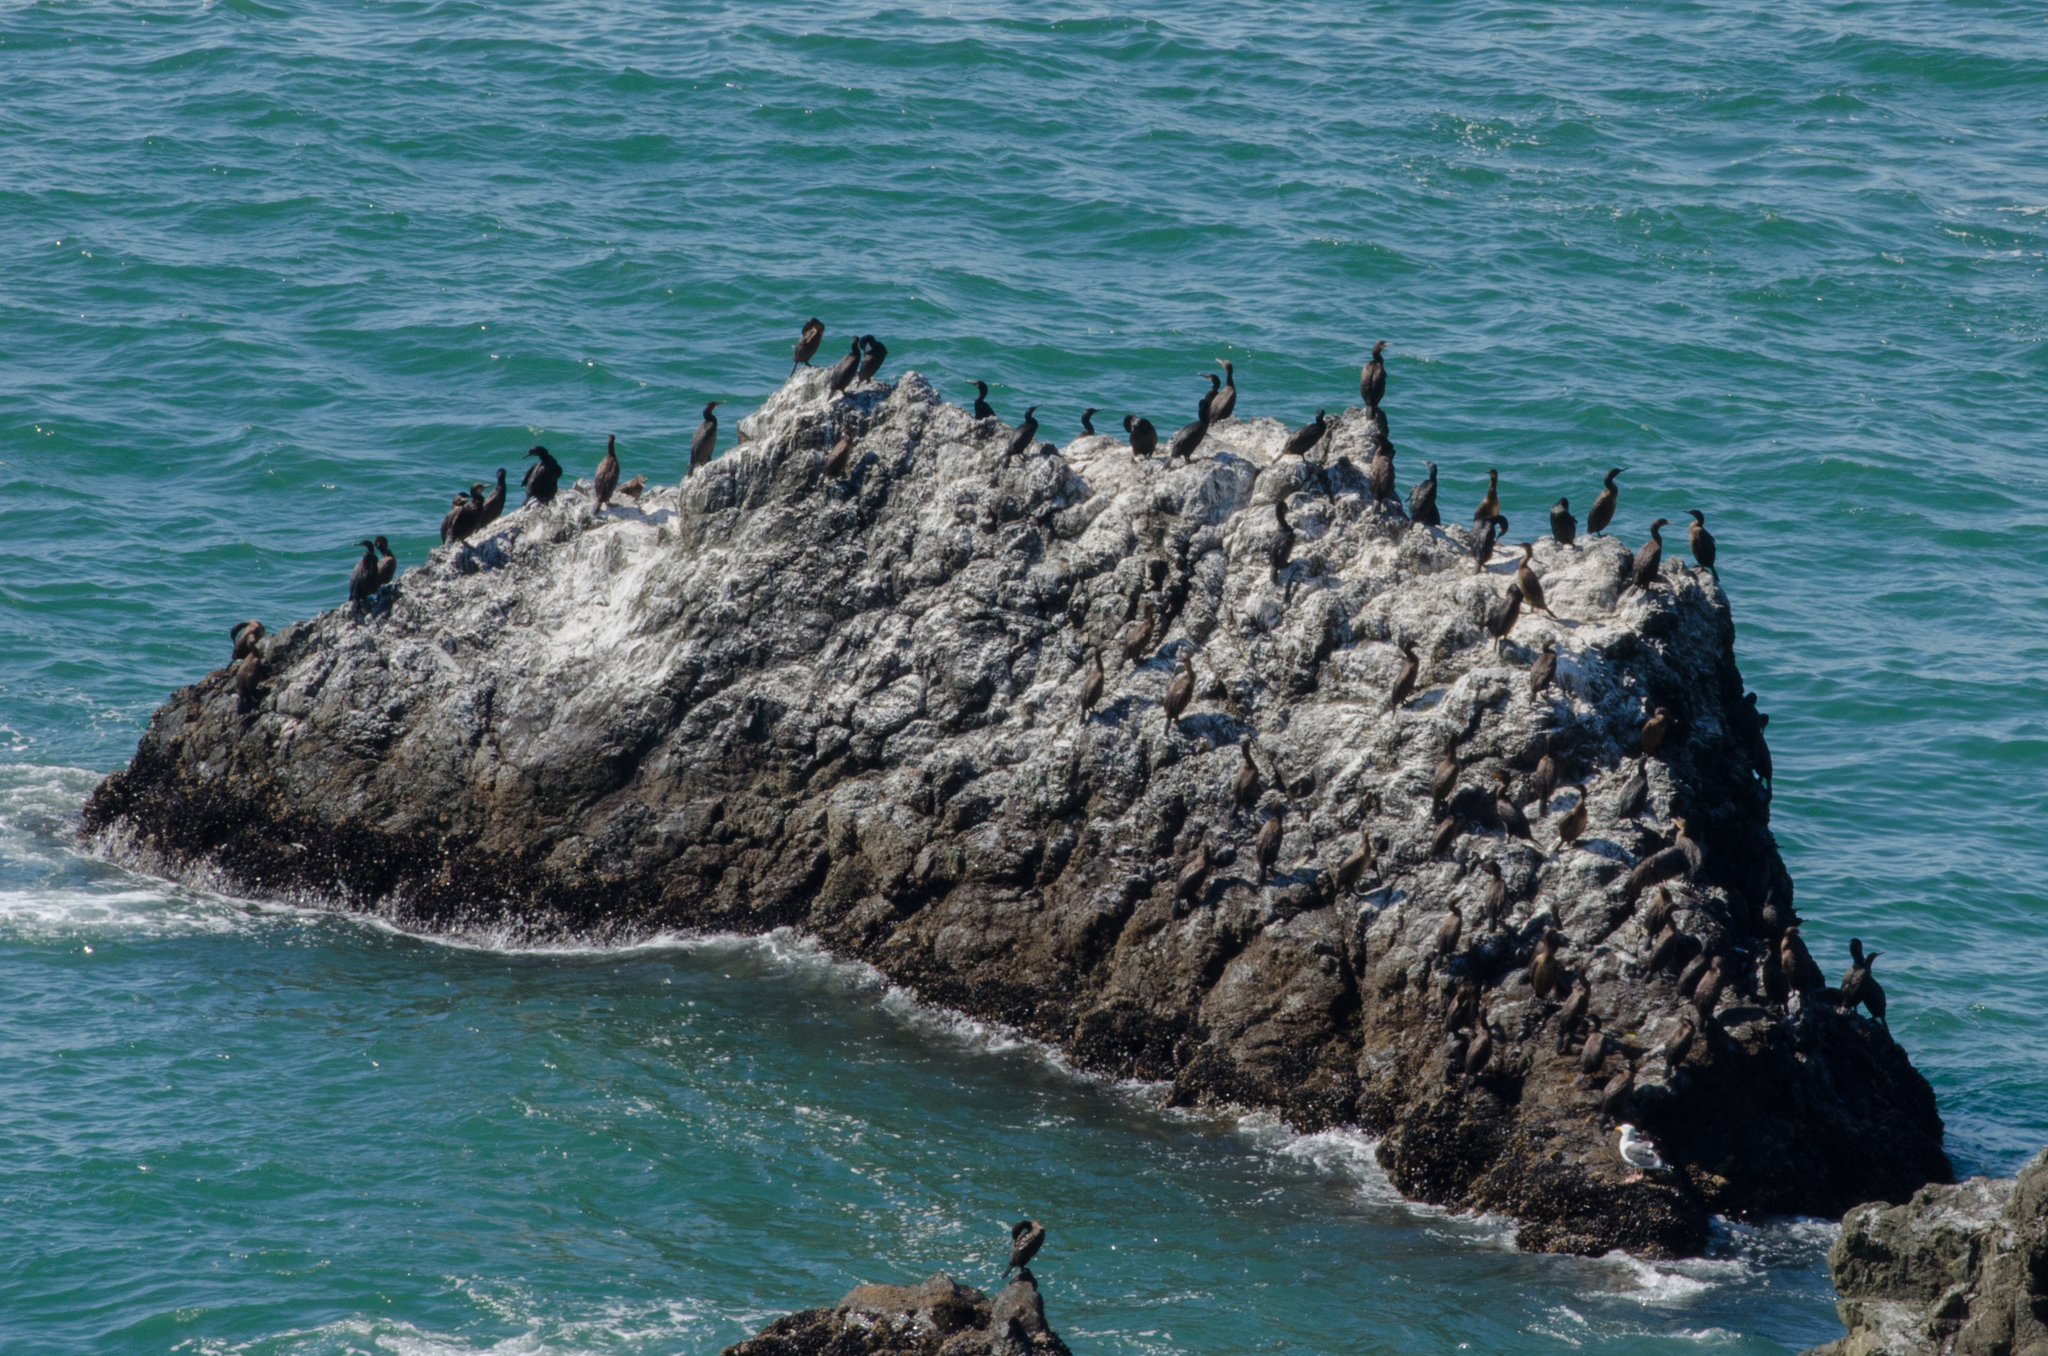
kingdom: Animalia
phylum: Chordata
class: Aves
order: Suliformes
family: Phalacrocoracidae
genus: Phalacrocorax
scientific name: Phalacrocorax pelagicus
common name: Pelagic cormorant
